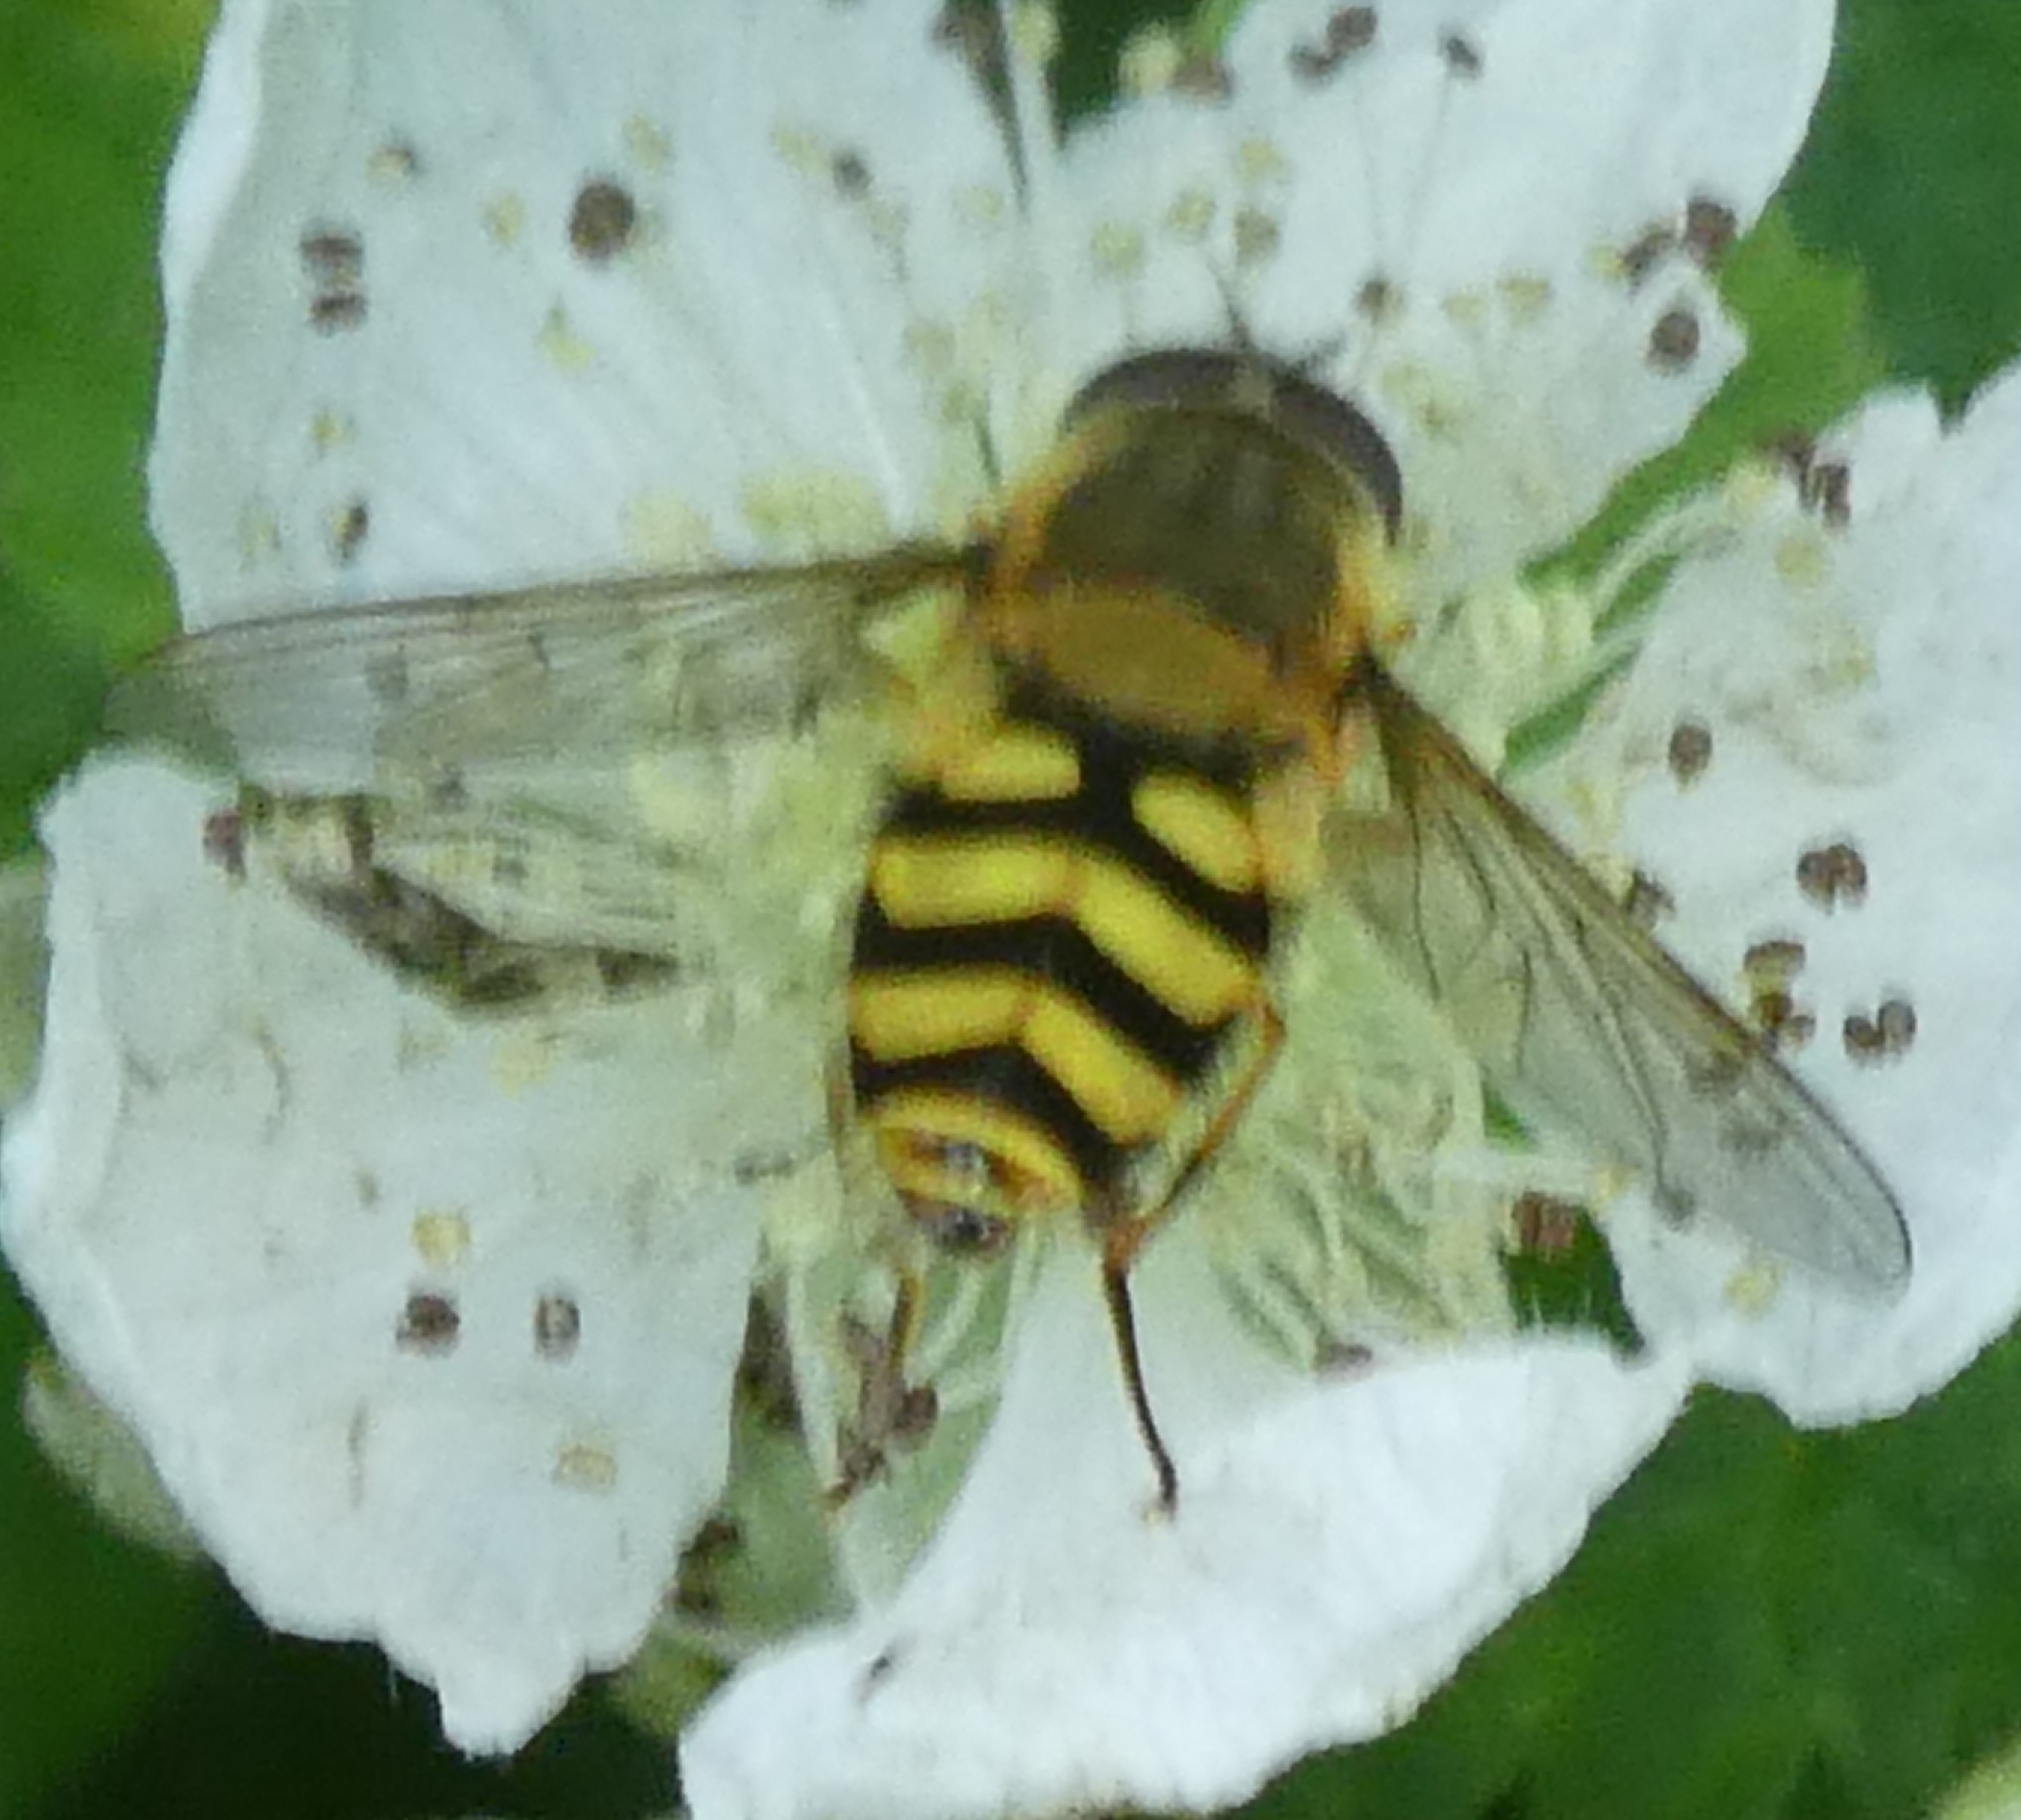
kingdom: Animalia
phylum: Arthropoda
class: Insecta
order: Diptera
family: Syrphidae
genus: Syrphus
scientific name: Syrphus
